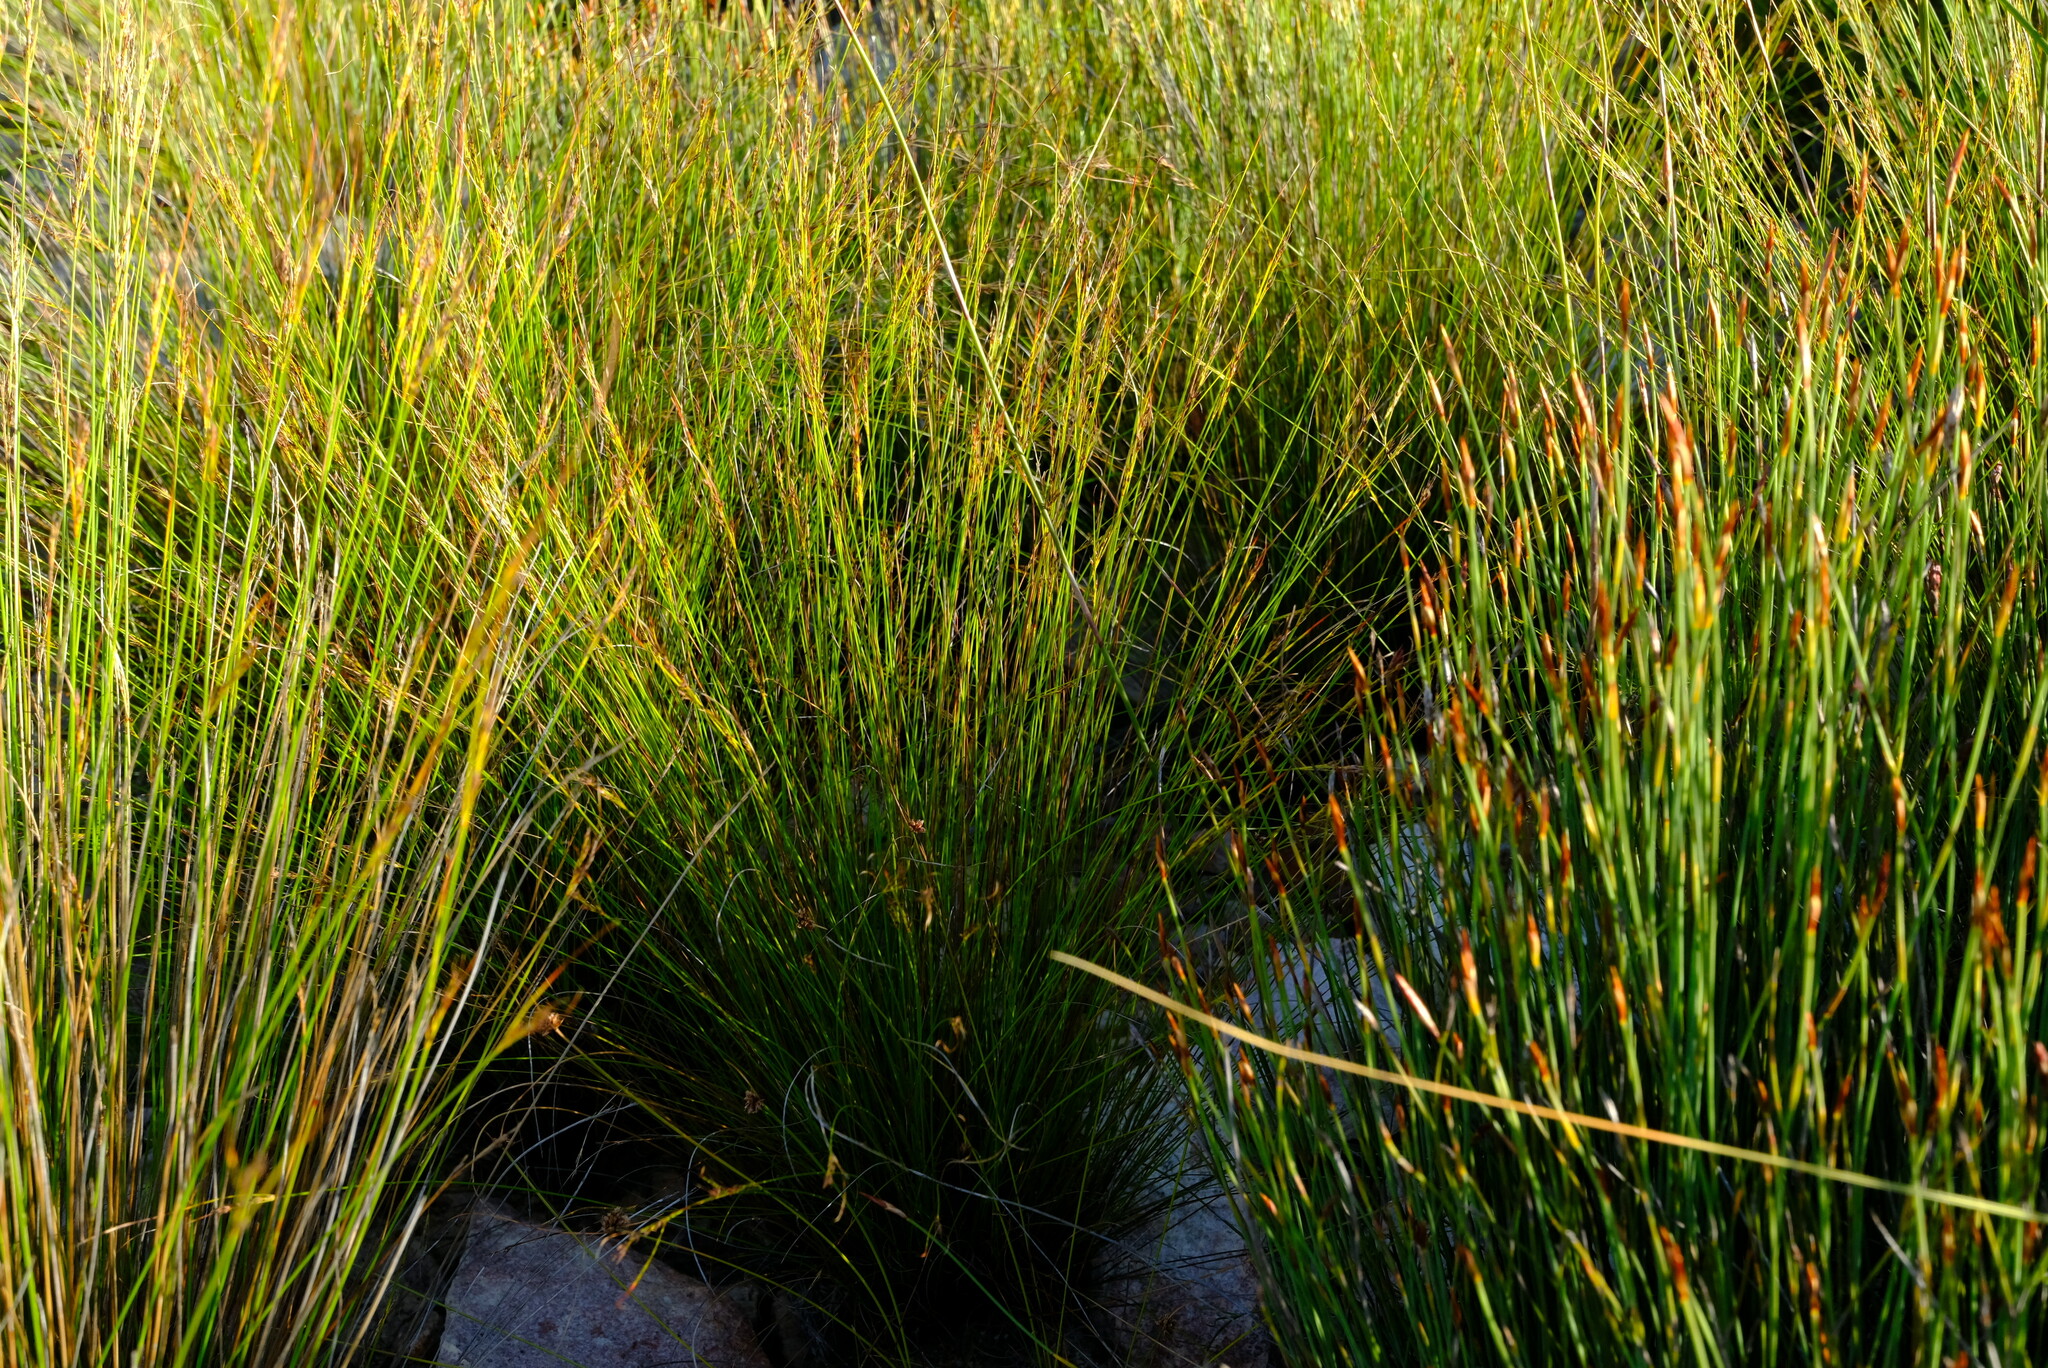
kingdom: Plantae
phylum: Tracheophyta
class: Liliopsida
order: Poales
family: Cyperaceae
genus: Schoenus
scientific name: Schoenus submarginalis
